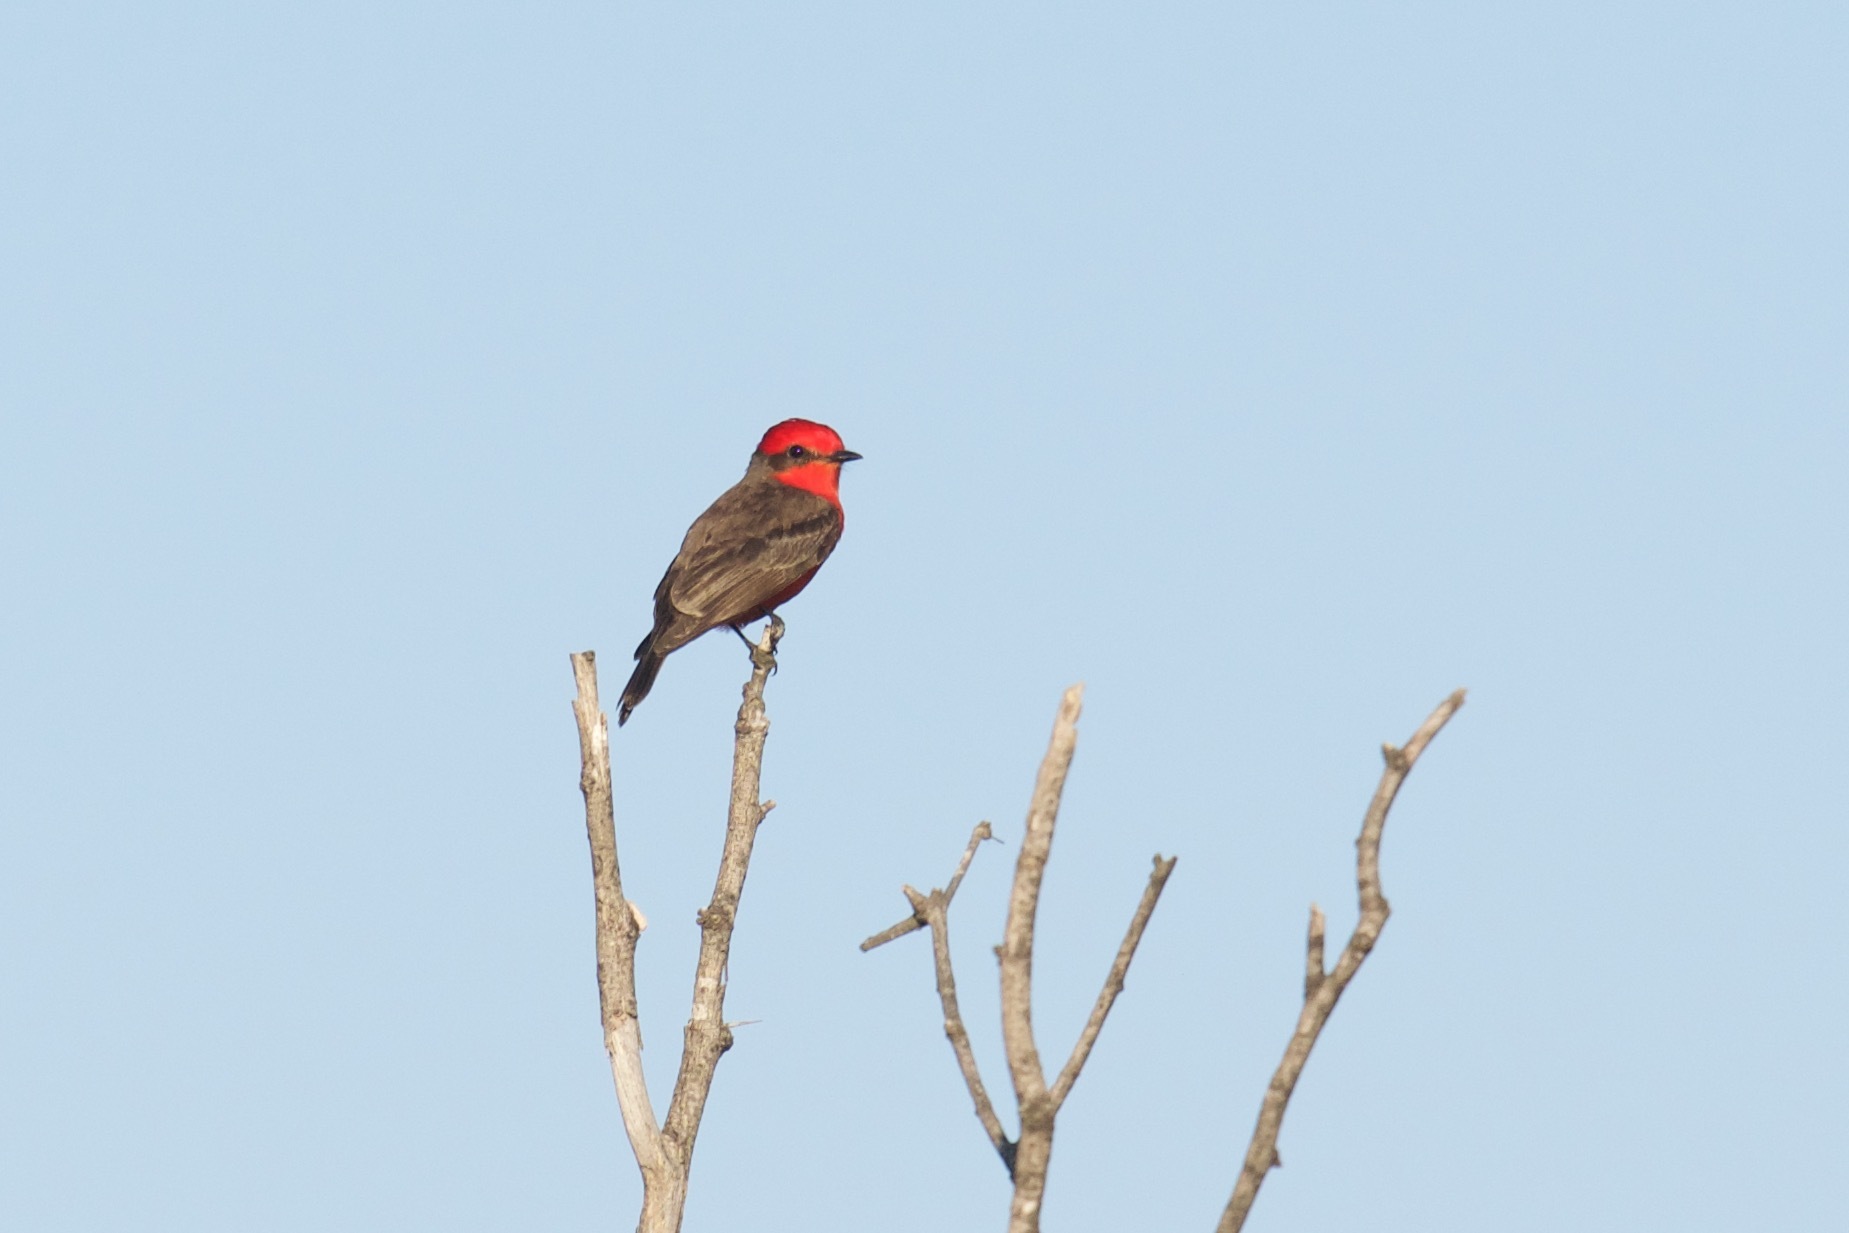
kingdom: Animalia
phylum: Chordata
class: Aves
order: Passeriformes
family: Tyrannidae
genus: Pyrocephalus
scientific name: Pyrocephalus rubinus
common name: Vermilion flycatcher
